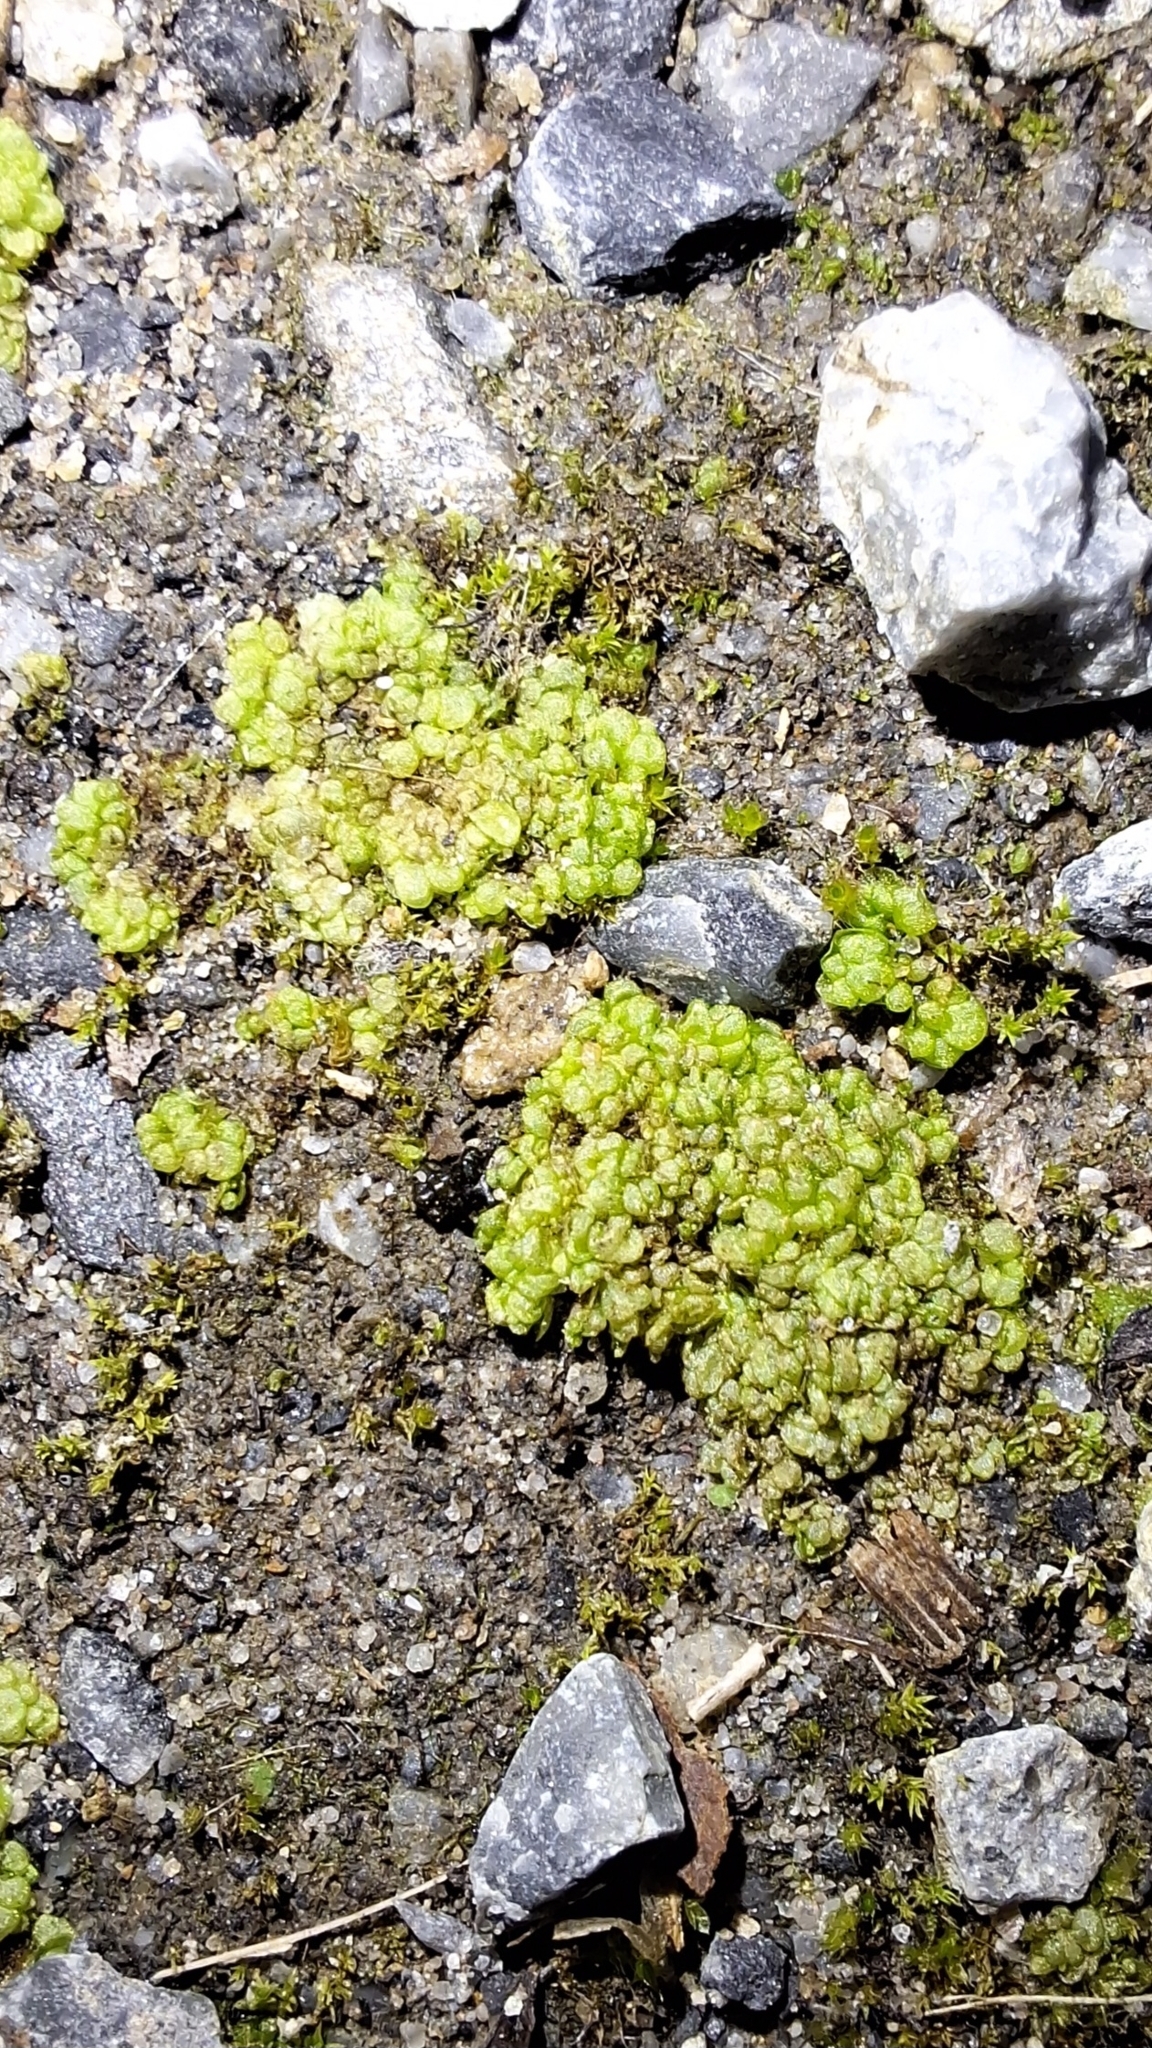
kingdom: Plantae
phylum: Marchantiophyta
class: Marchantiopsida
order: Sphaerocarpales
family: Sphaerocarpaceae
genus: Sphaerocarpos
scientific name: Sphaerocarpos texanus
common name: Texas balloonwort
